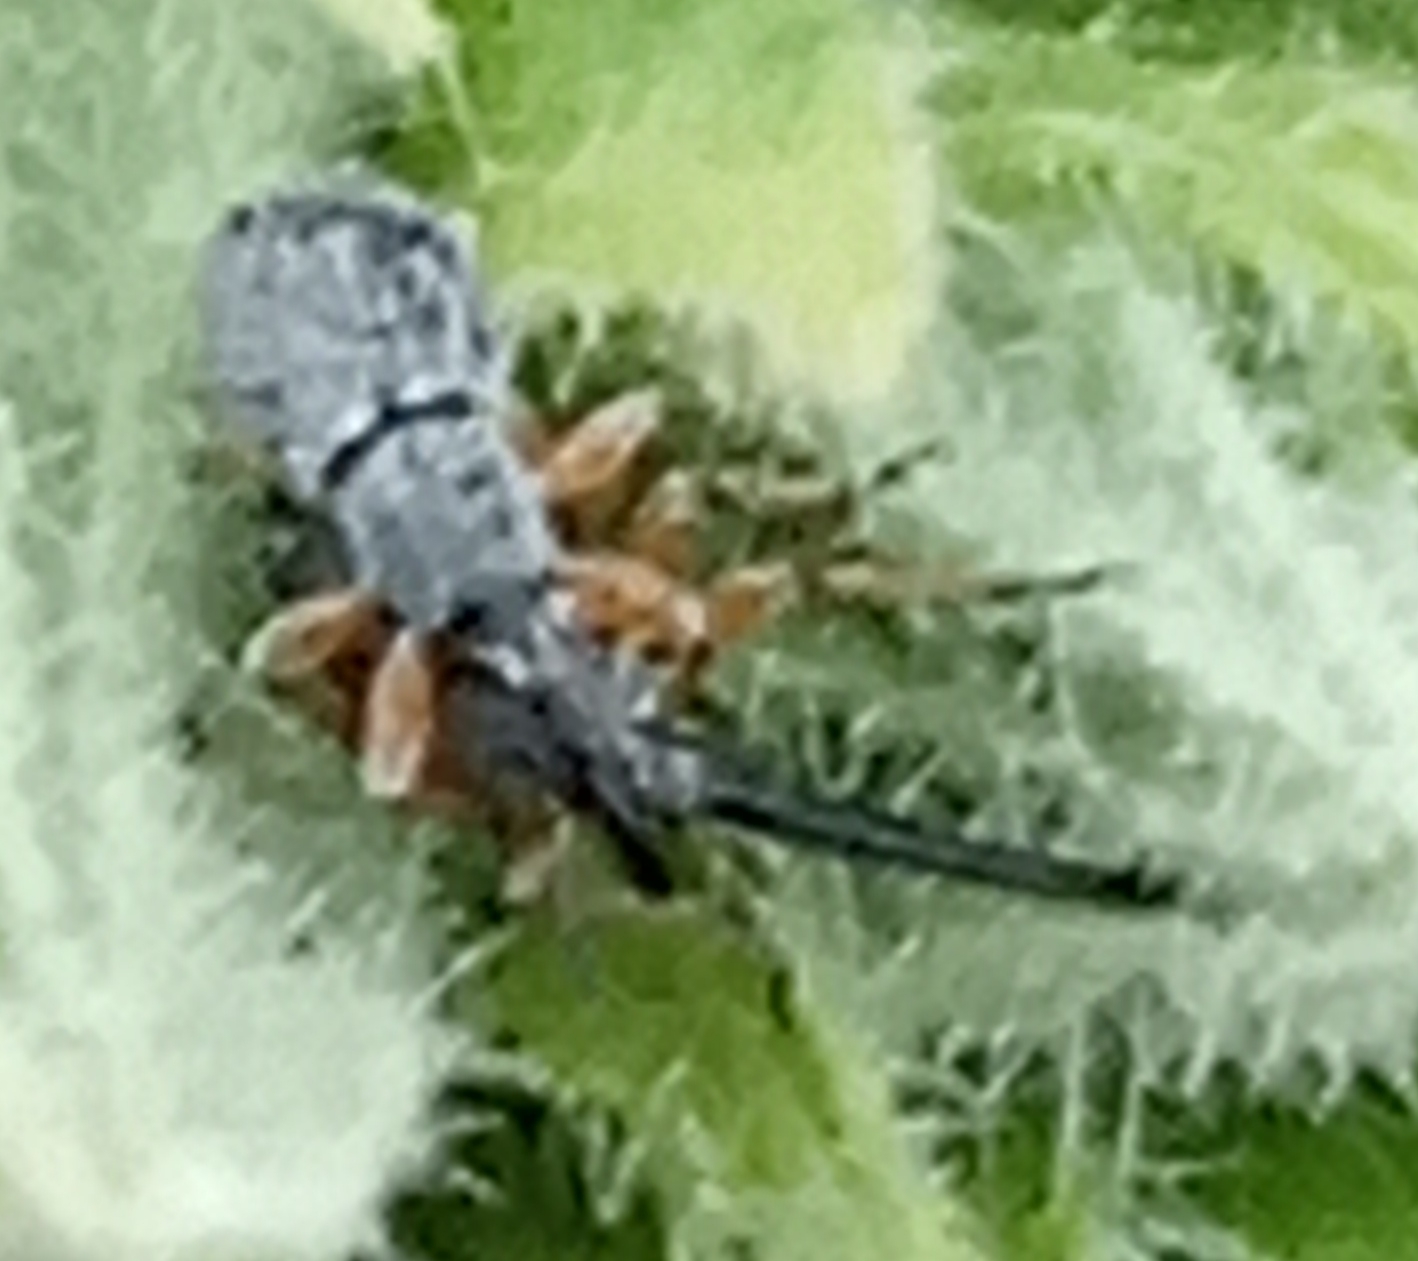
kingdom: Animalia
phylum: Arthropoda
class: Insecta
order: Coleoptera
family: Brentidae
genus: Rhopalapion
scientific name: Rhopalapion longirostre
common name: Hollyhock weevil
